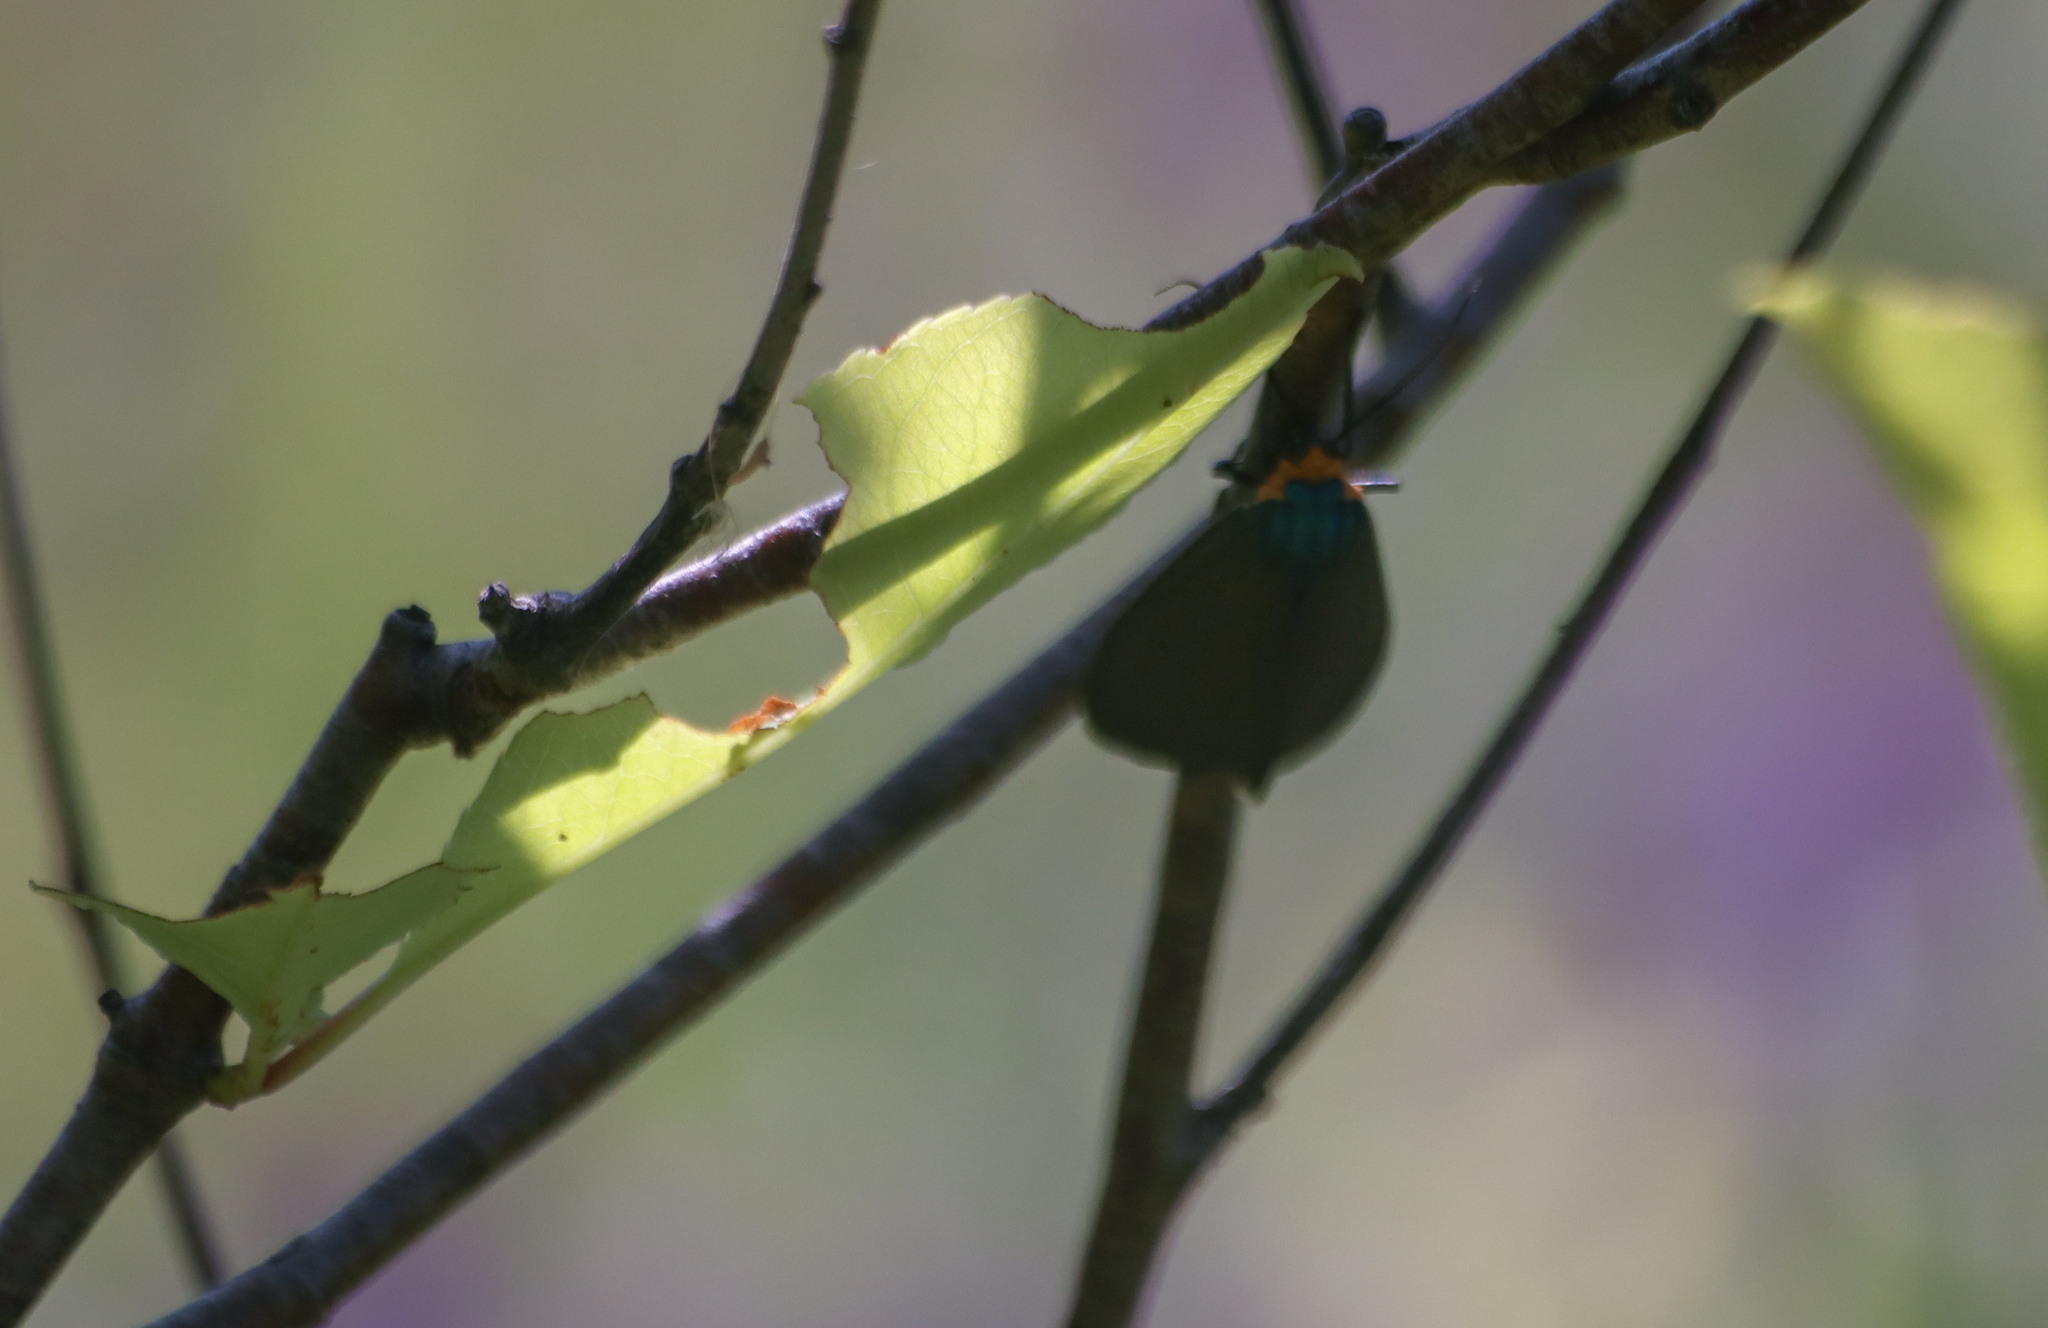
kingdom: Animalia
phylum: Arthropoda
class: Insecta
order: Lepidoptera
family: Erebidae
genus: Ctenucha
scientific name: Ctenucha virginica
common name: Virginia ctenucha moth
